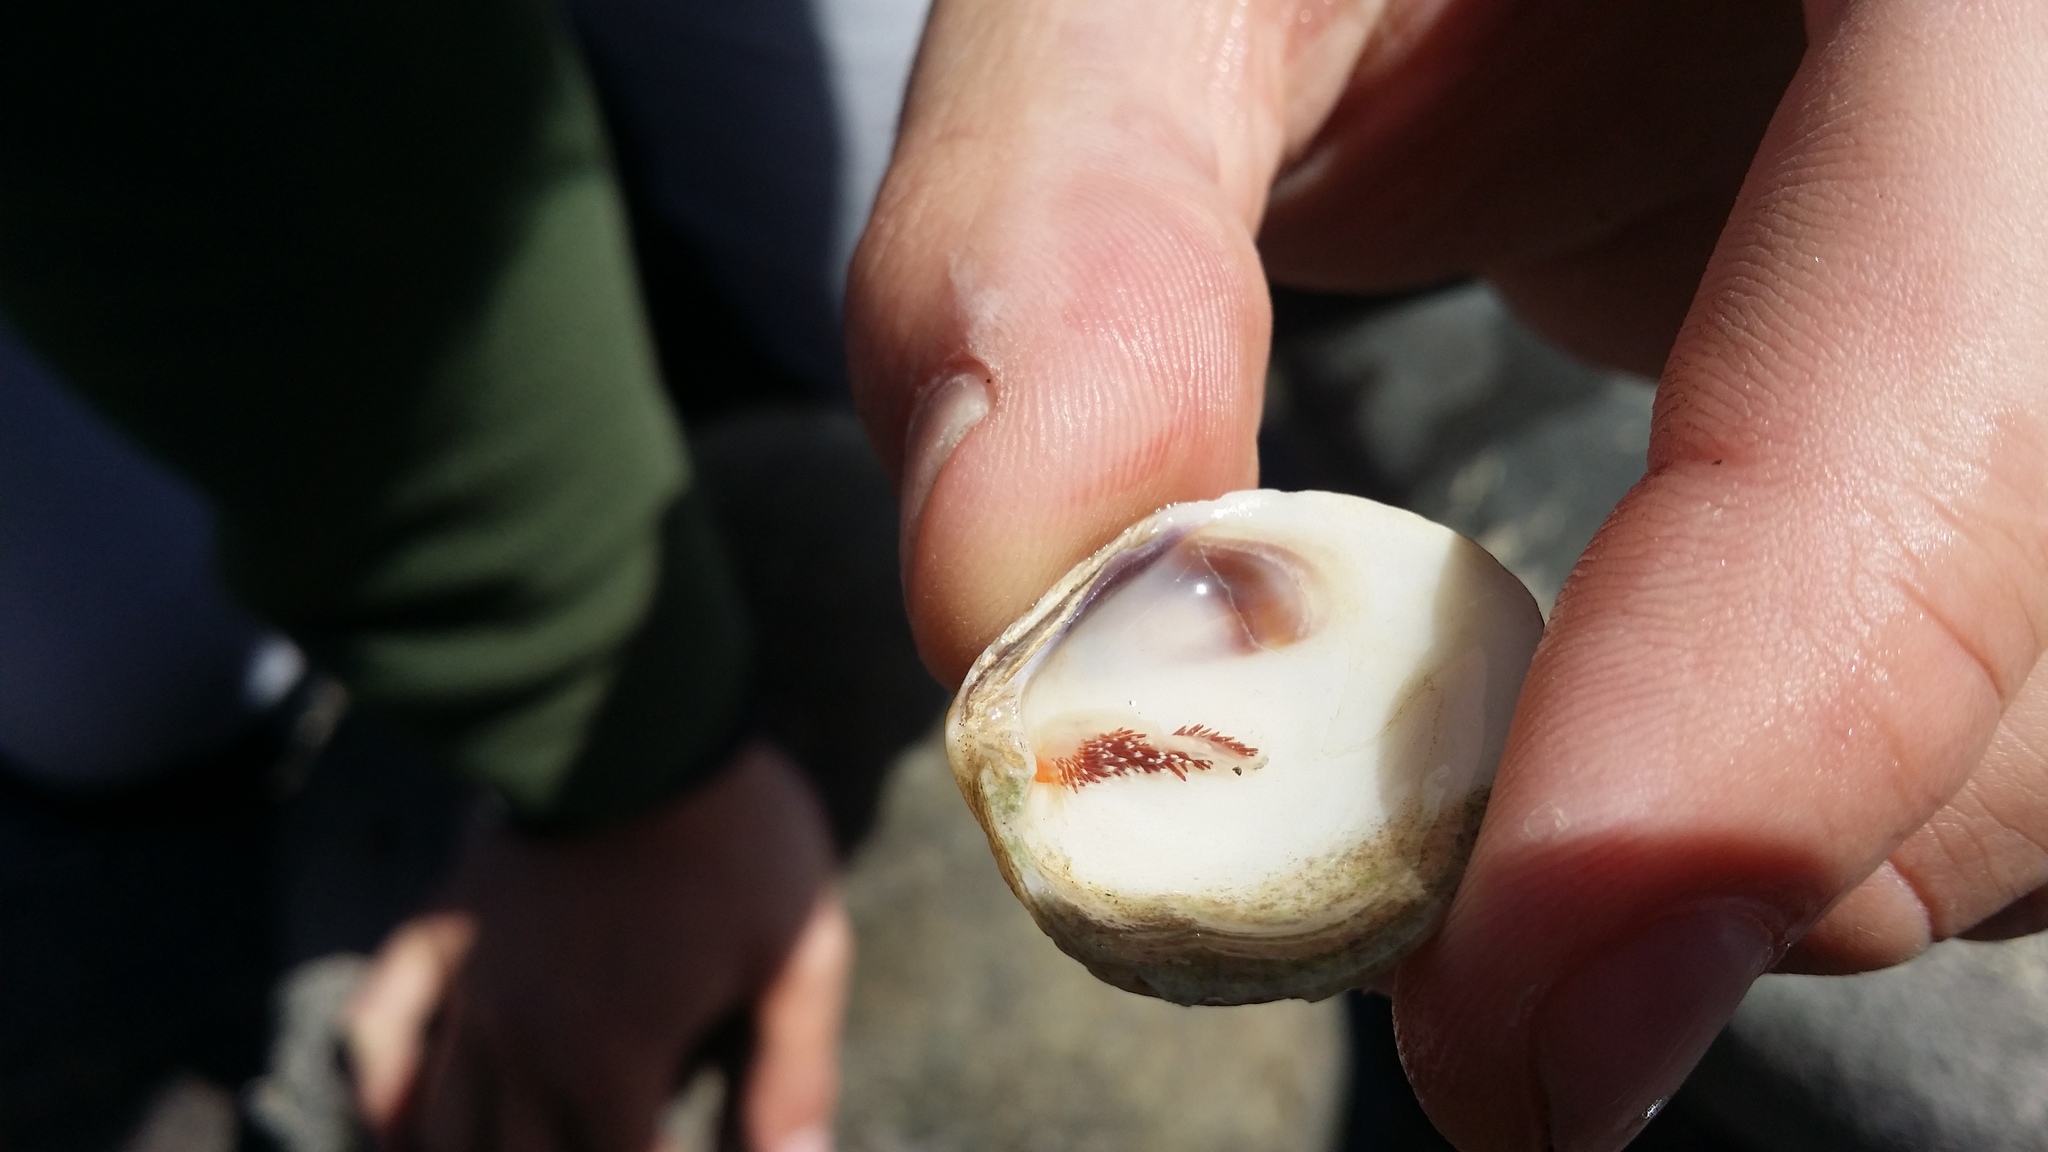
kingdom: Animalia
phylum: Mollusca
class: Gastropoda
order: Nudibranchia
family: Facelinidae
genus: Phidiana
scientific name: Phidiana milleri
